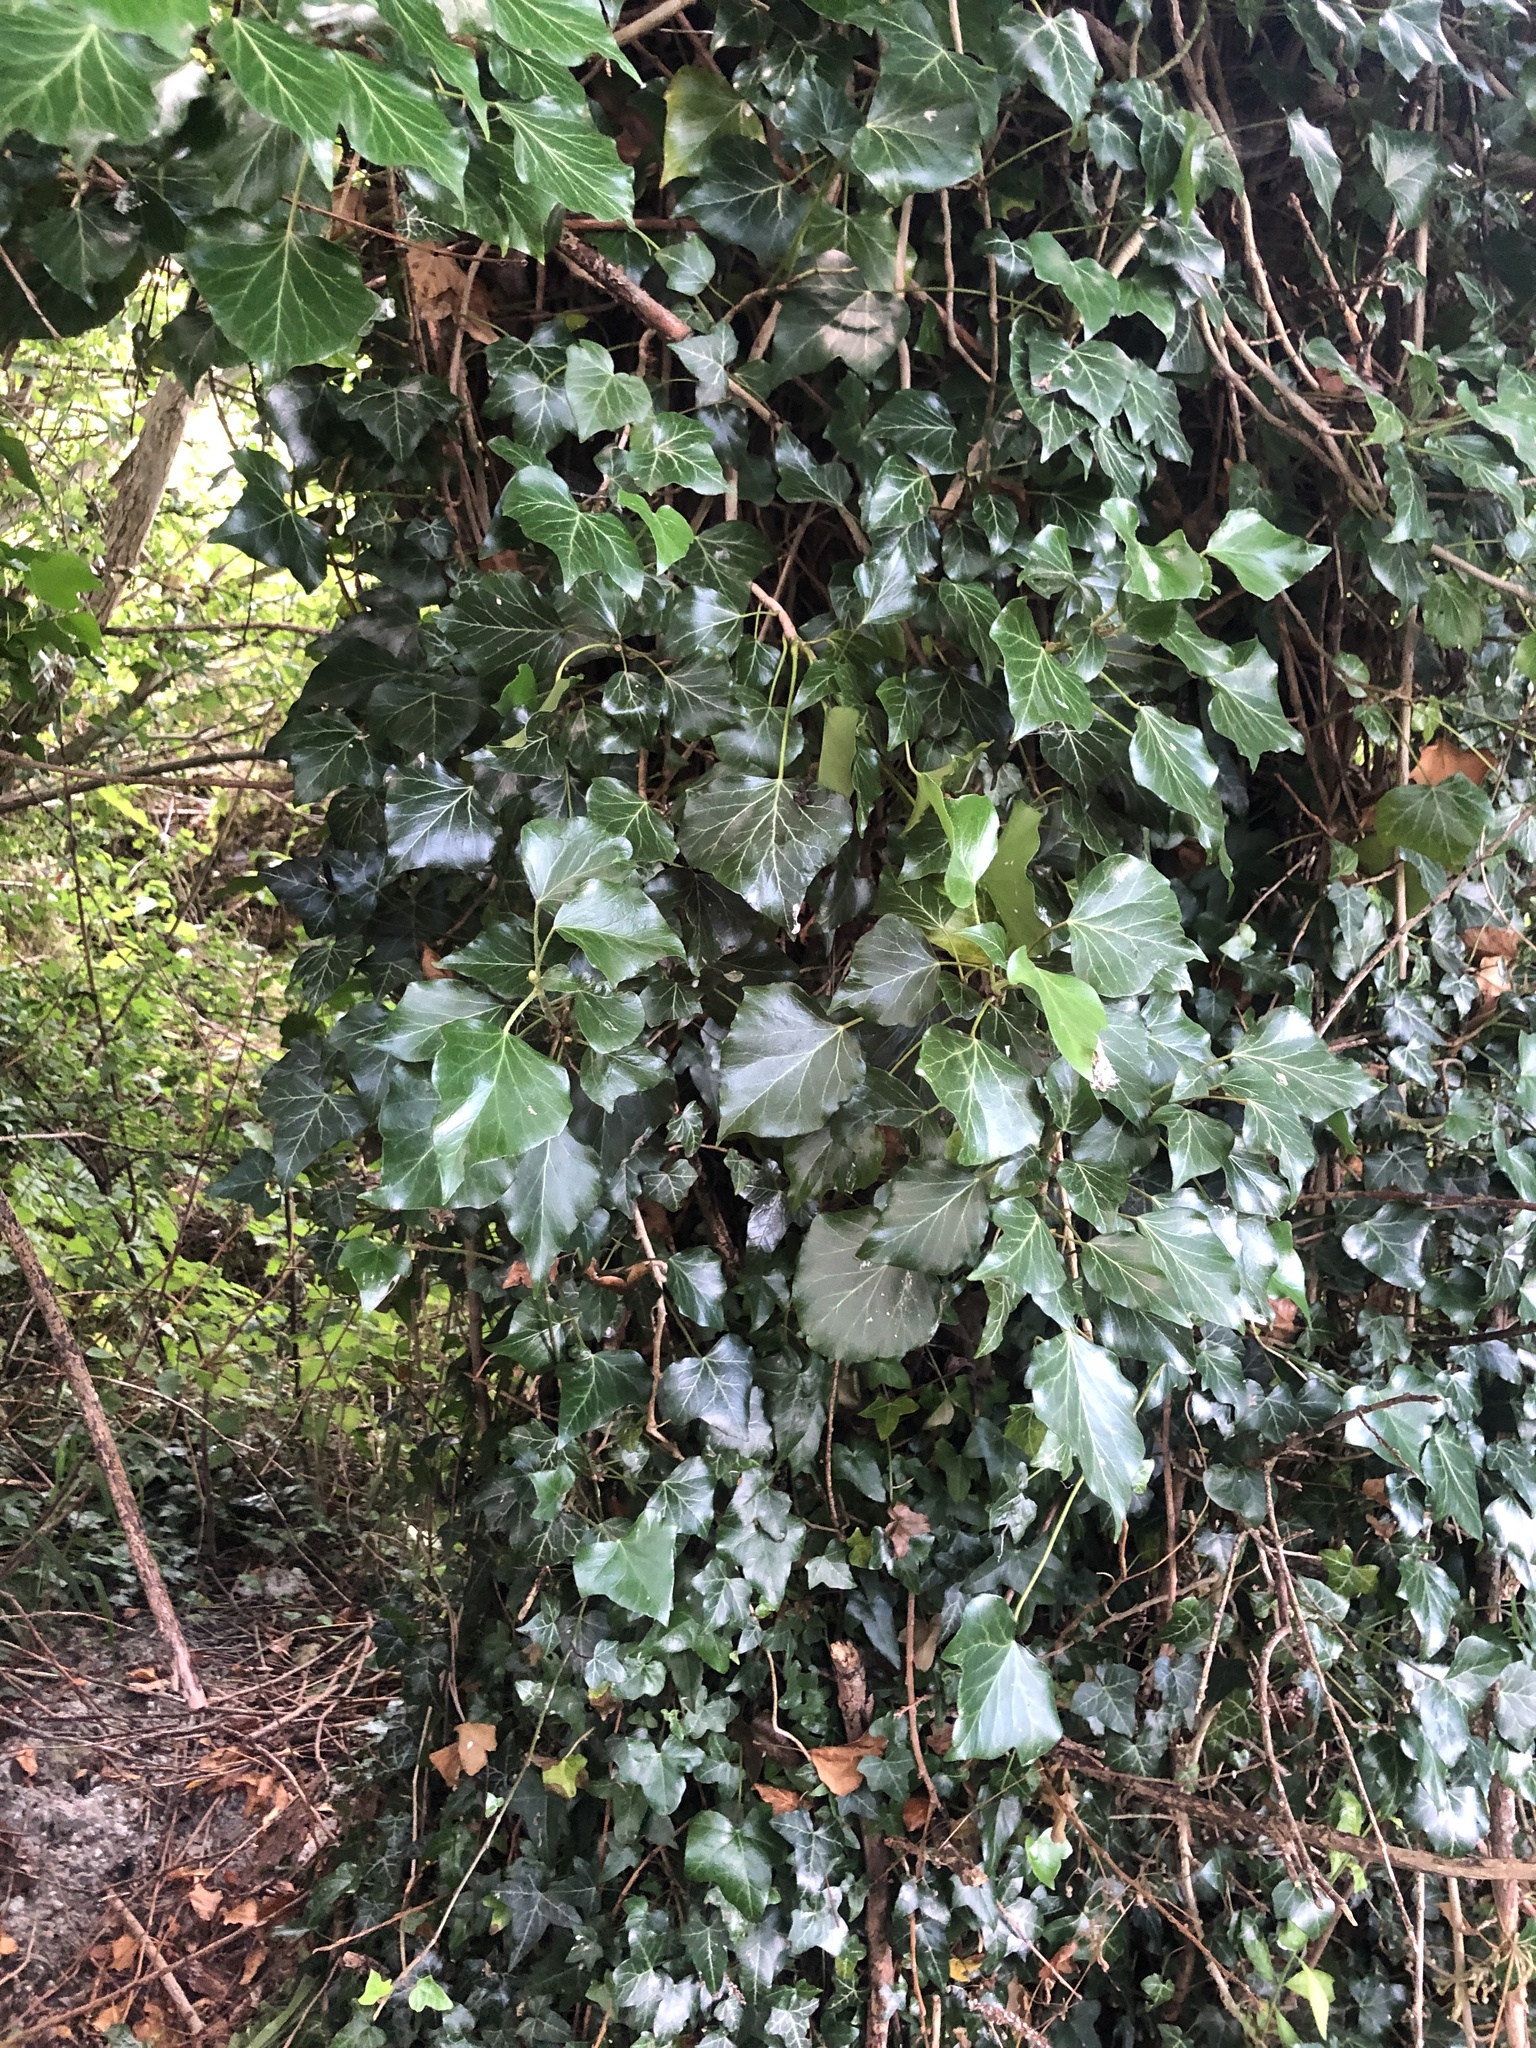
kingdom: Plantae
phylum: Tracheophyta
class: Magnoliopsida
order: Apiales
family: Araliaceae
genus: Hedera
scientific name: Hedera helix
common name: Ivy
